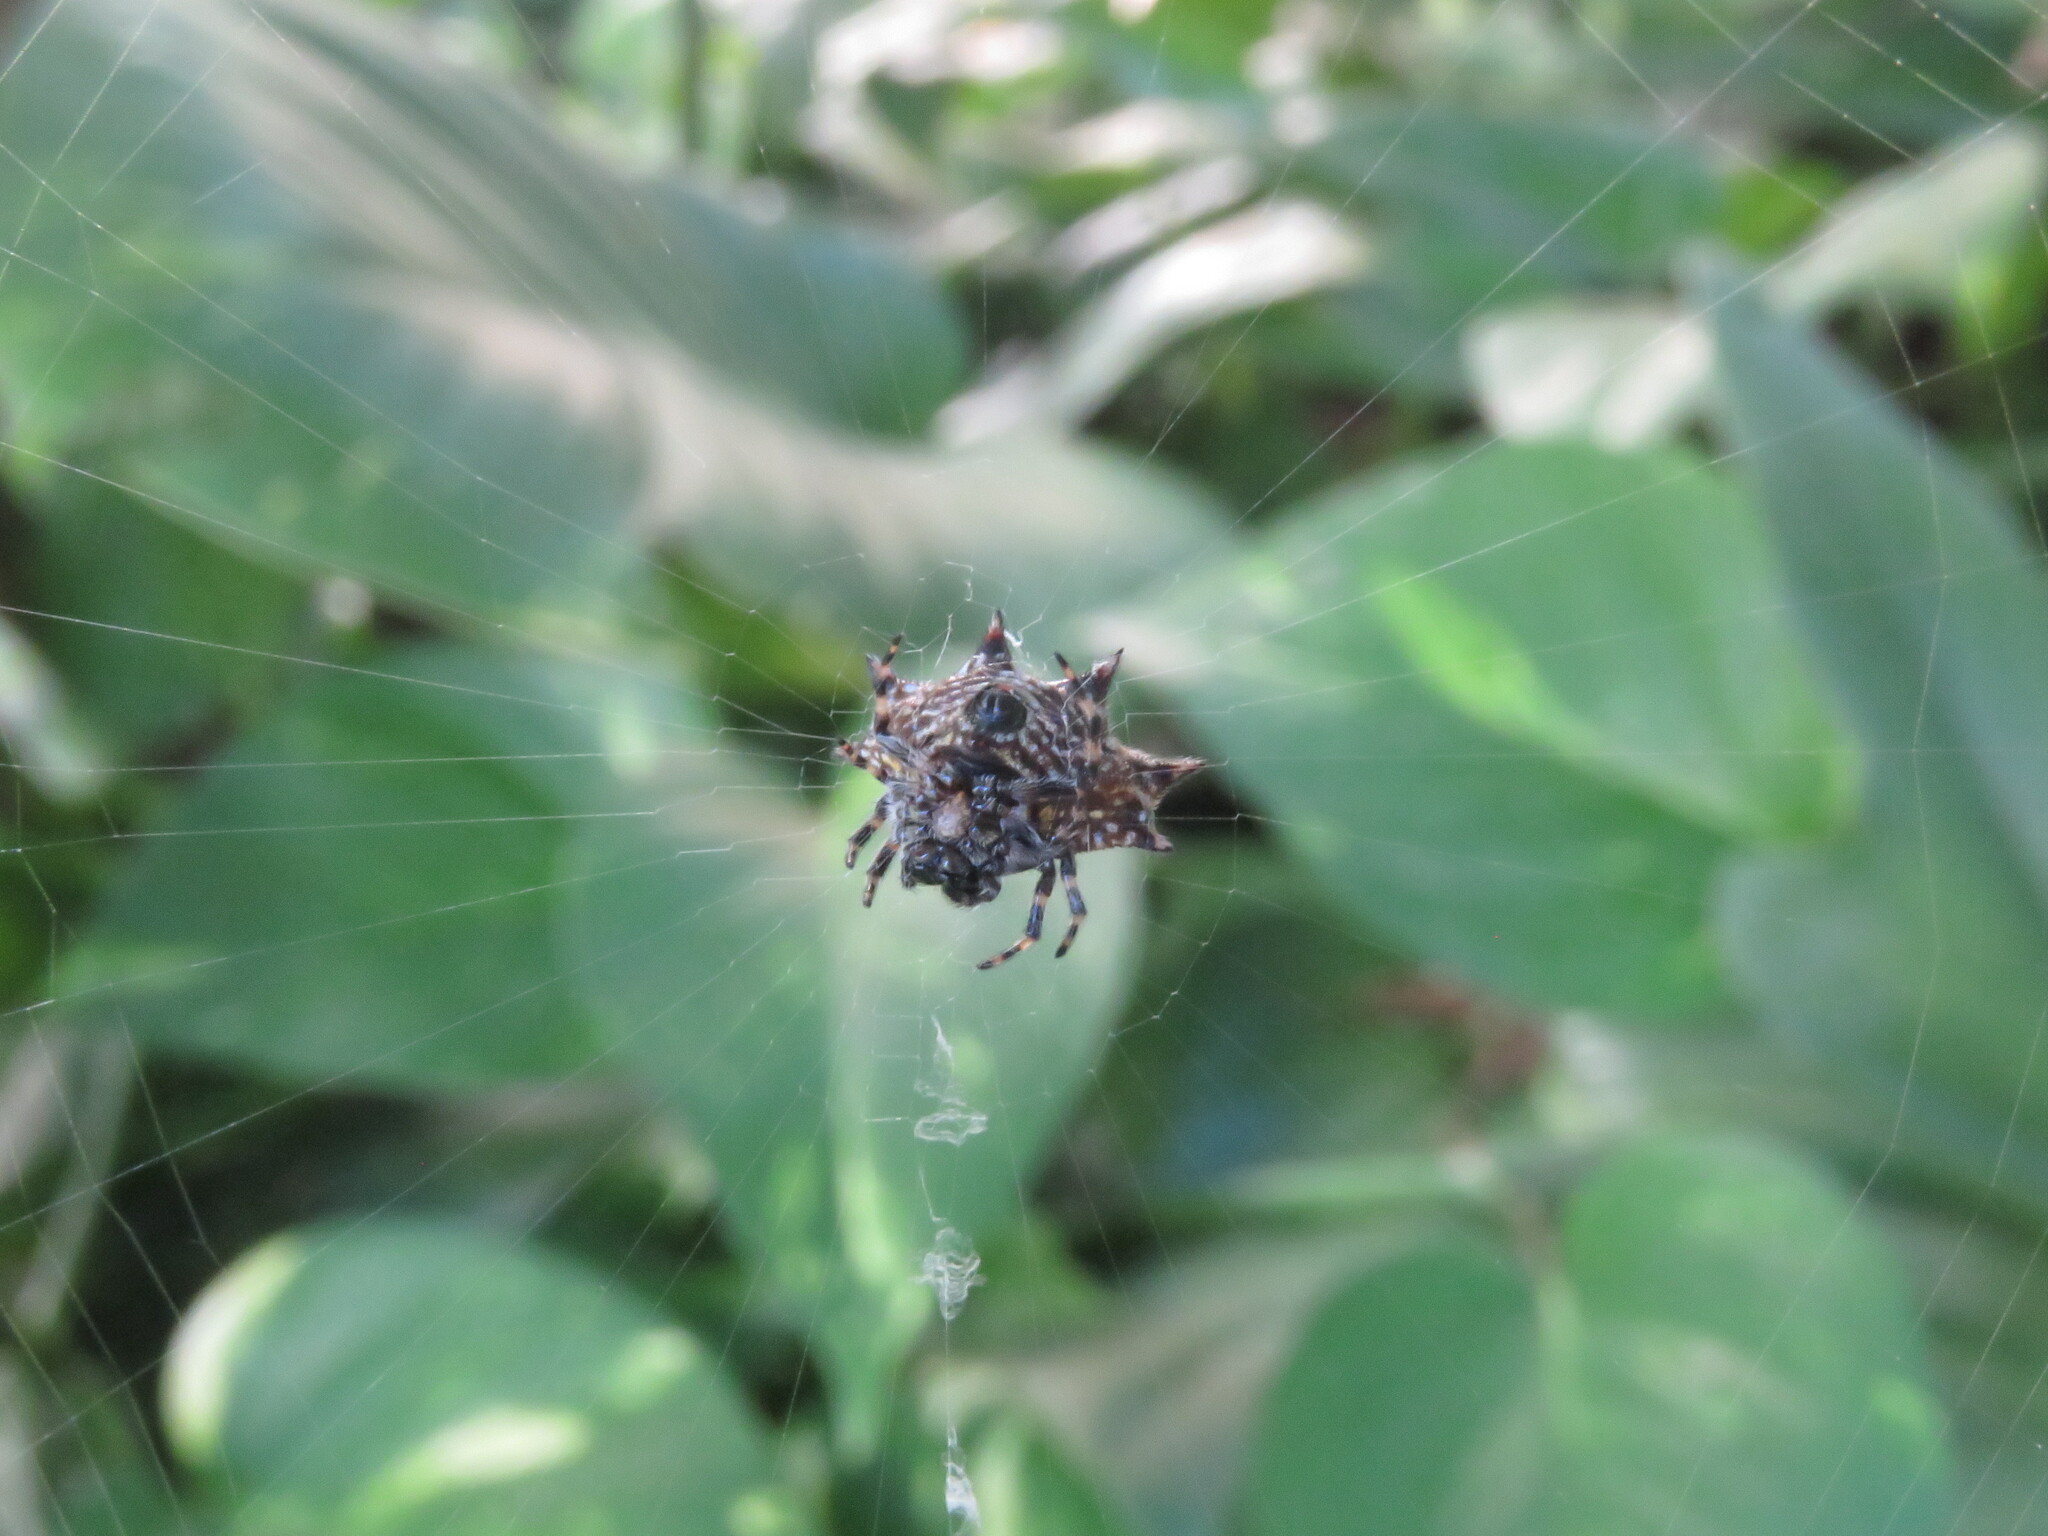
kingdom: Animalia
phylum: Arthropoda
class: Arachnida
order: Araneae
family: Araneidae
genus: Gasteracantha
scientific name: Gasteracantha cancriformis
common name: Orb weavers
